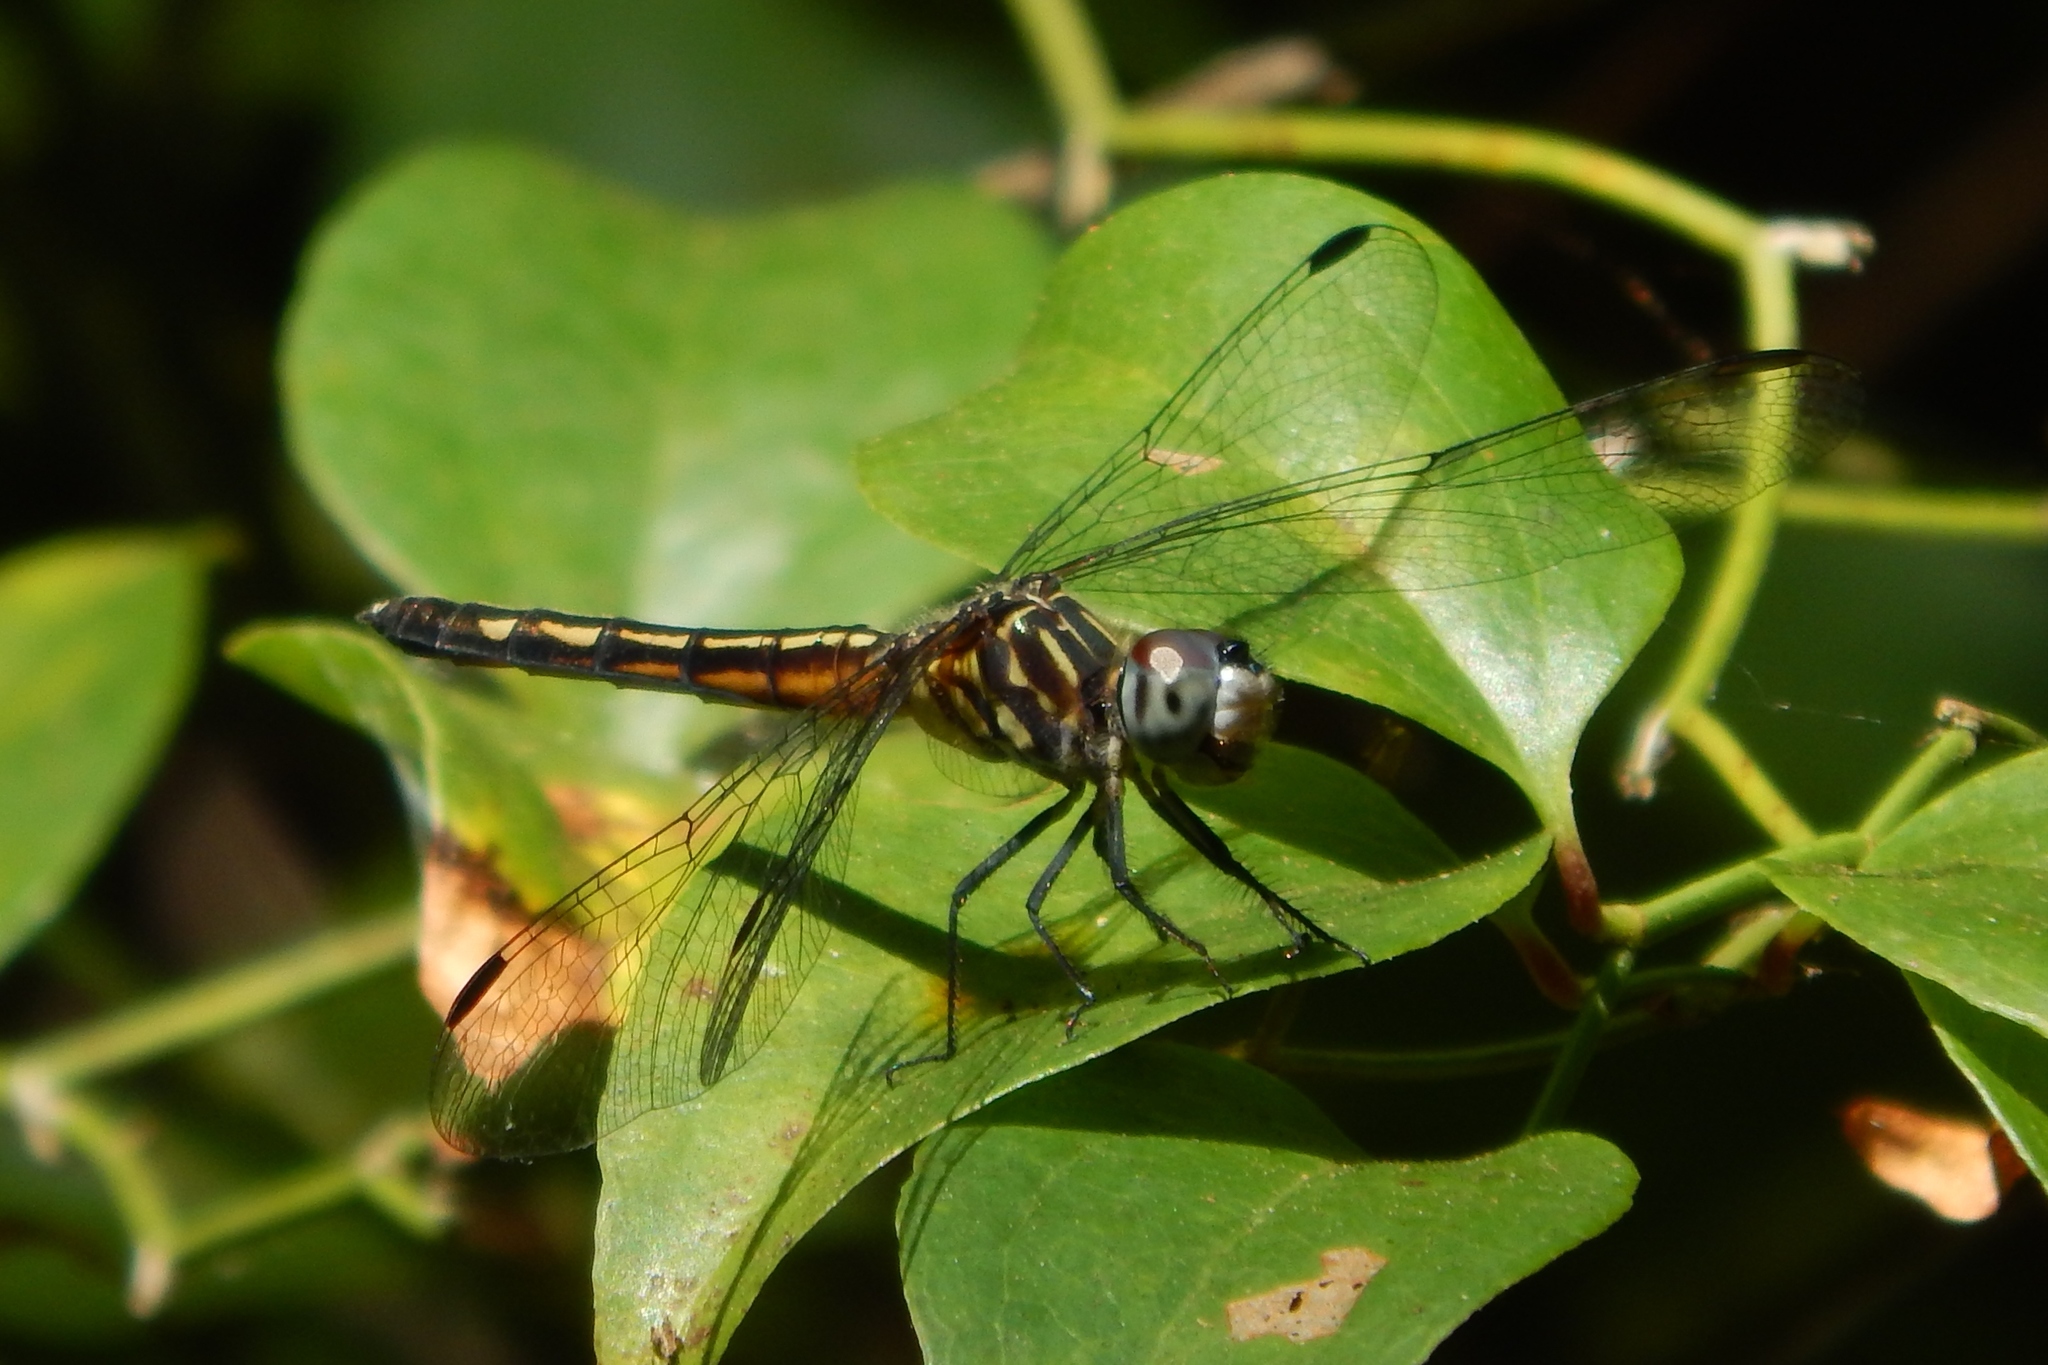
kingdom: Animalia
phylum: Arthropoda
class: Insecta
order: Odonata
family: Libellulidae
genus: Pachydiplax
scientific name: Pachydiplax longipennis
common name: Blue dasher
